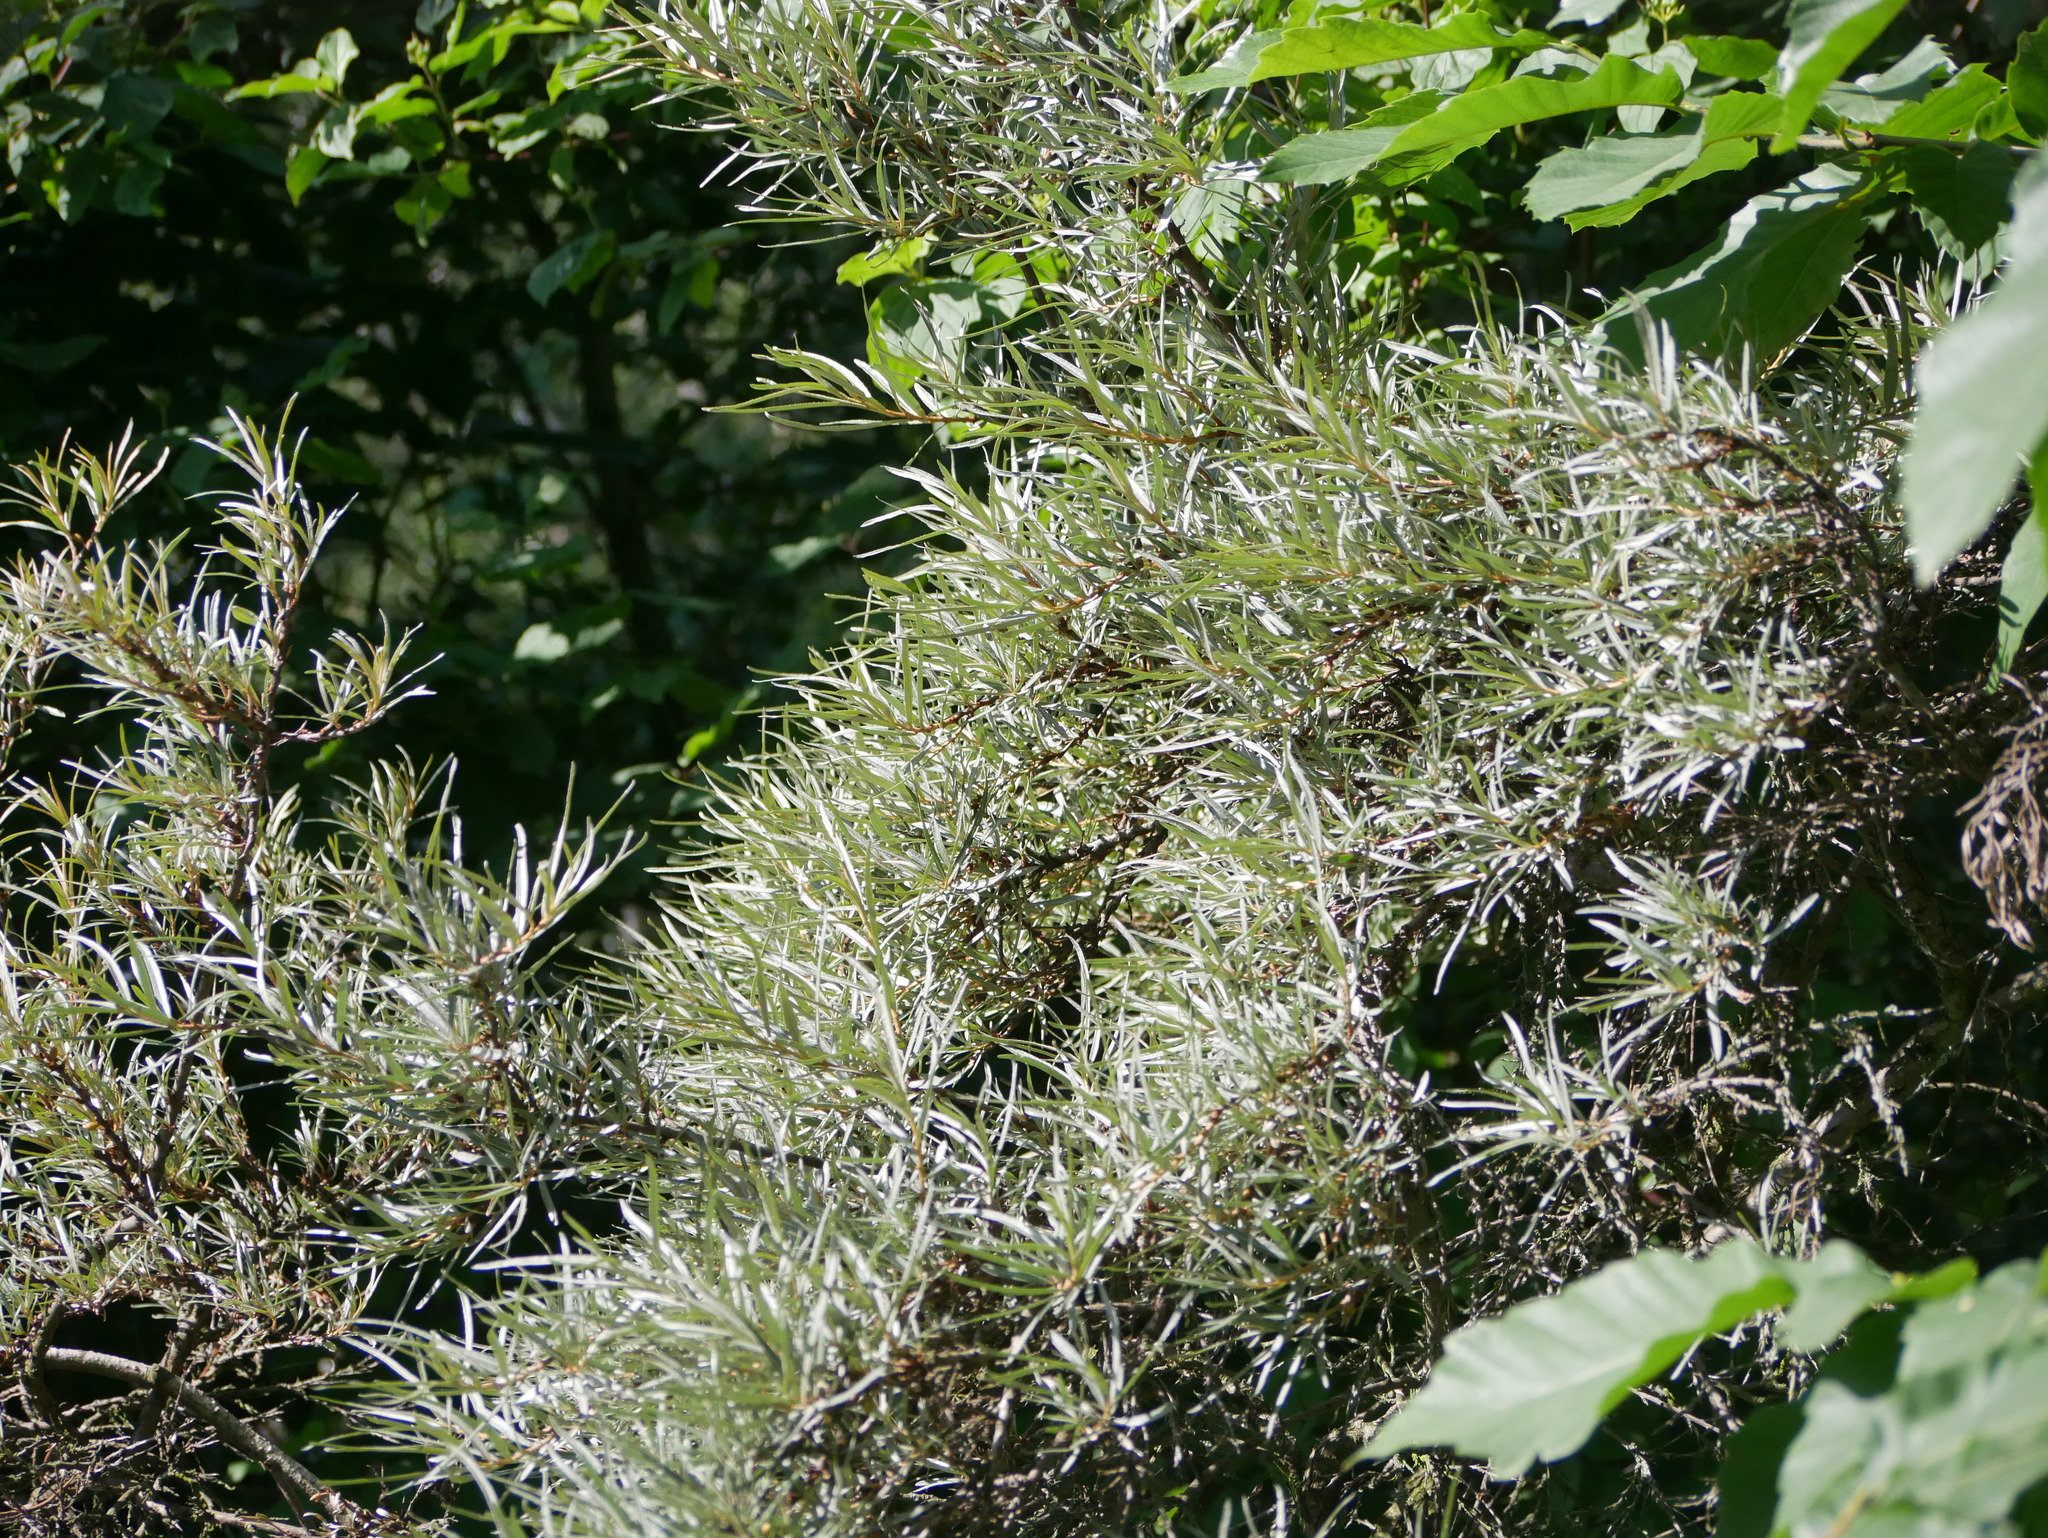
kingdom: Plantae
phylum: Tracheophyta
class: Magnoliopsida
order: Rosales
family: Elaeagnaceae
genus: Hippophae
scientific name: Hippophae rhamnoides
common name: Sea-buckthorn
